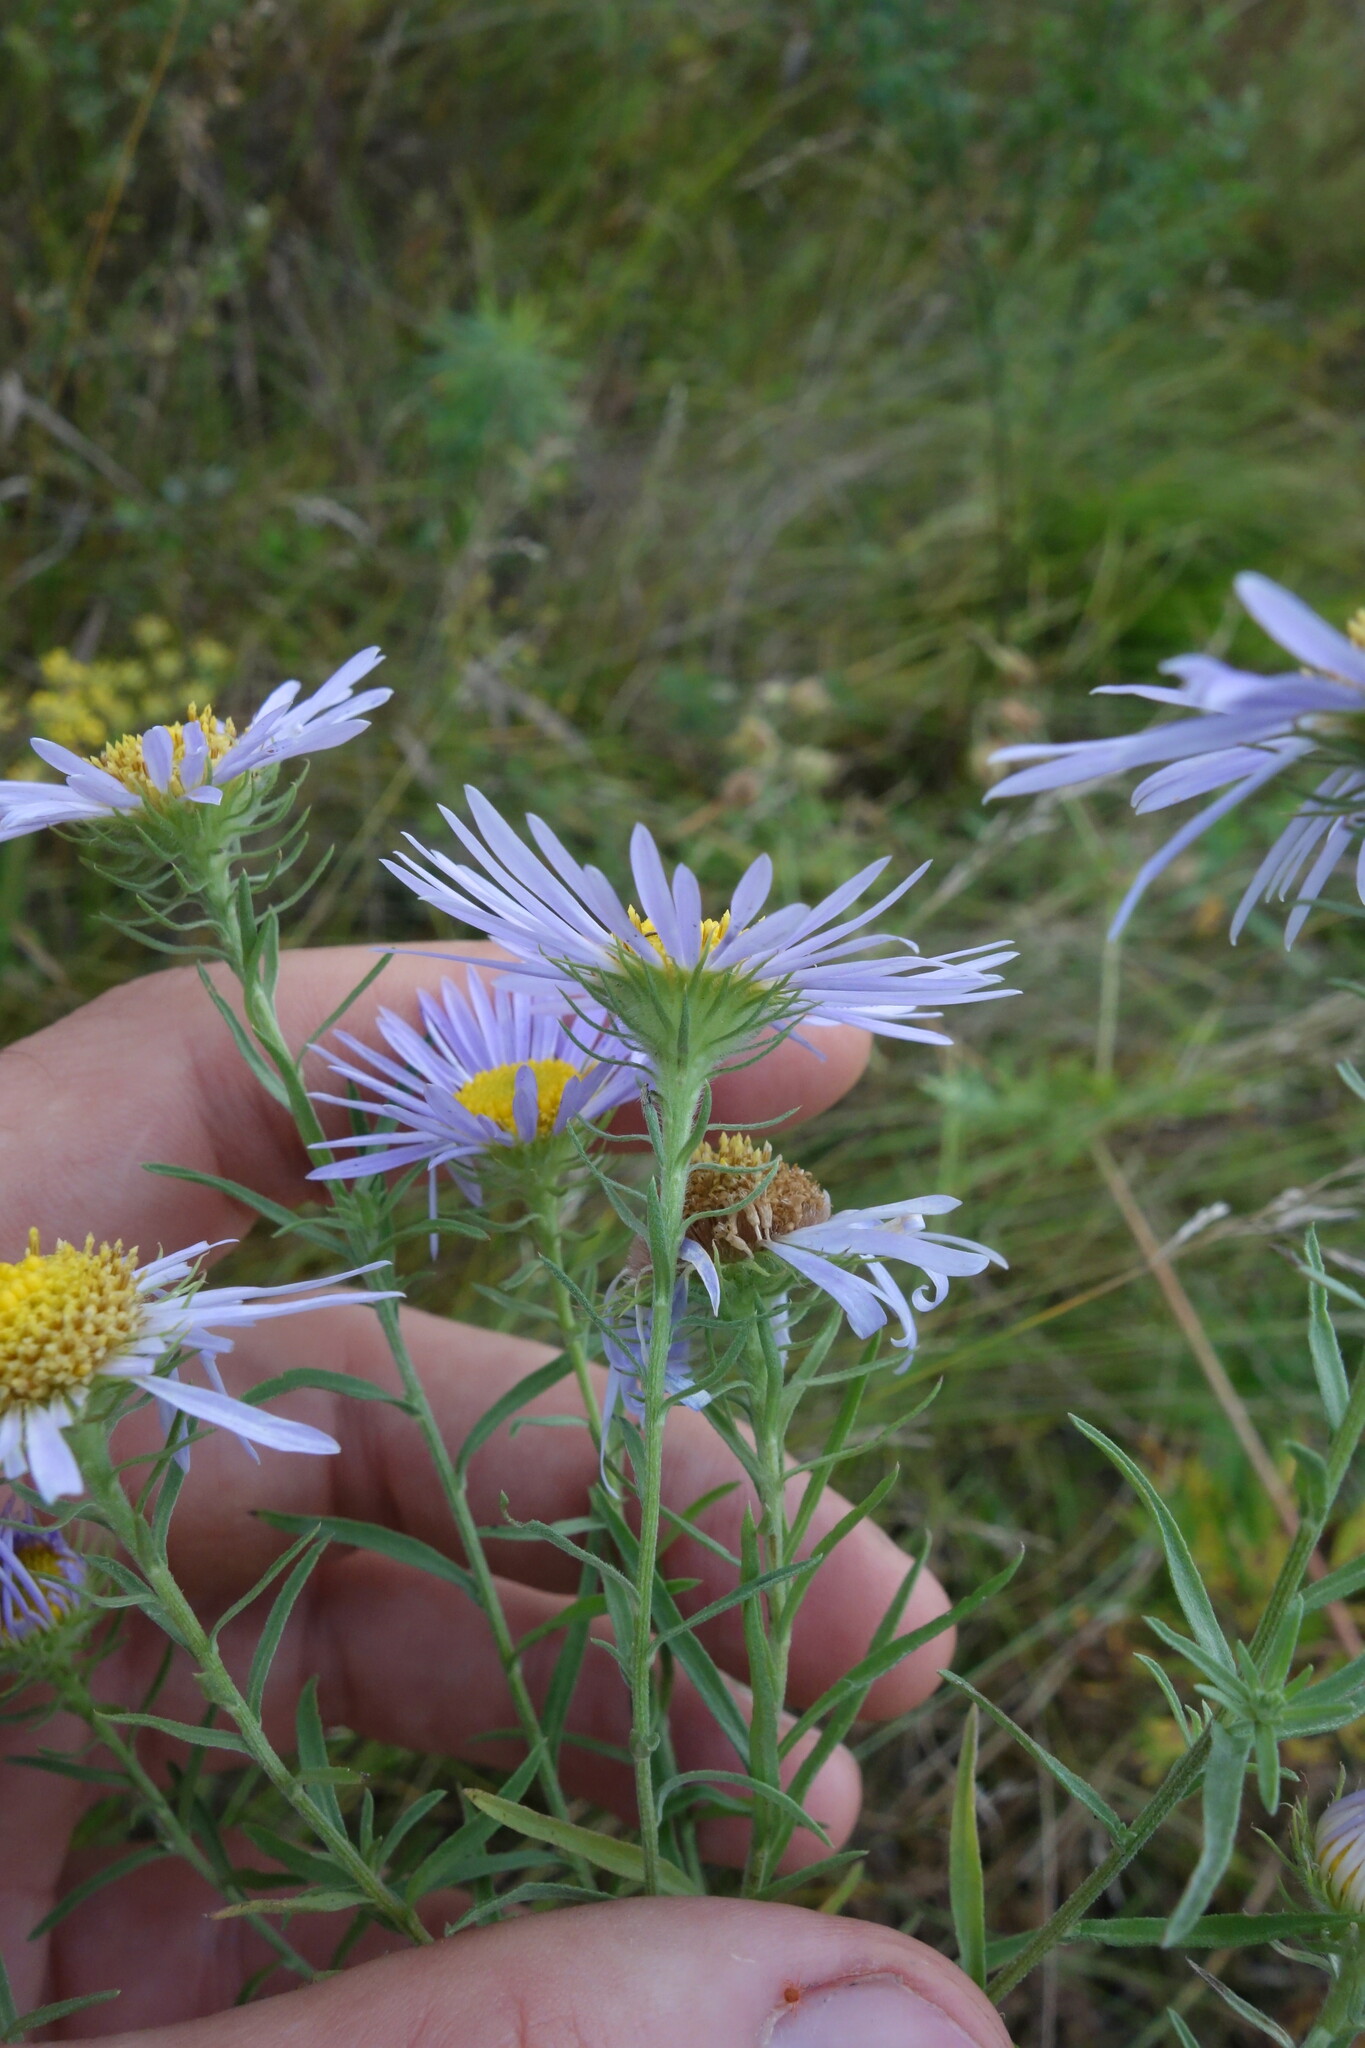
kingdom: Plantae
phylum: Tracheophyta
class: Magnoliopsida
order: Asterales
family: Asteraceae
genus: Aster
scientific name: Aster biennis
